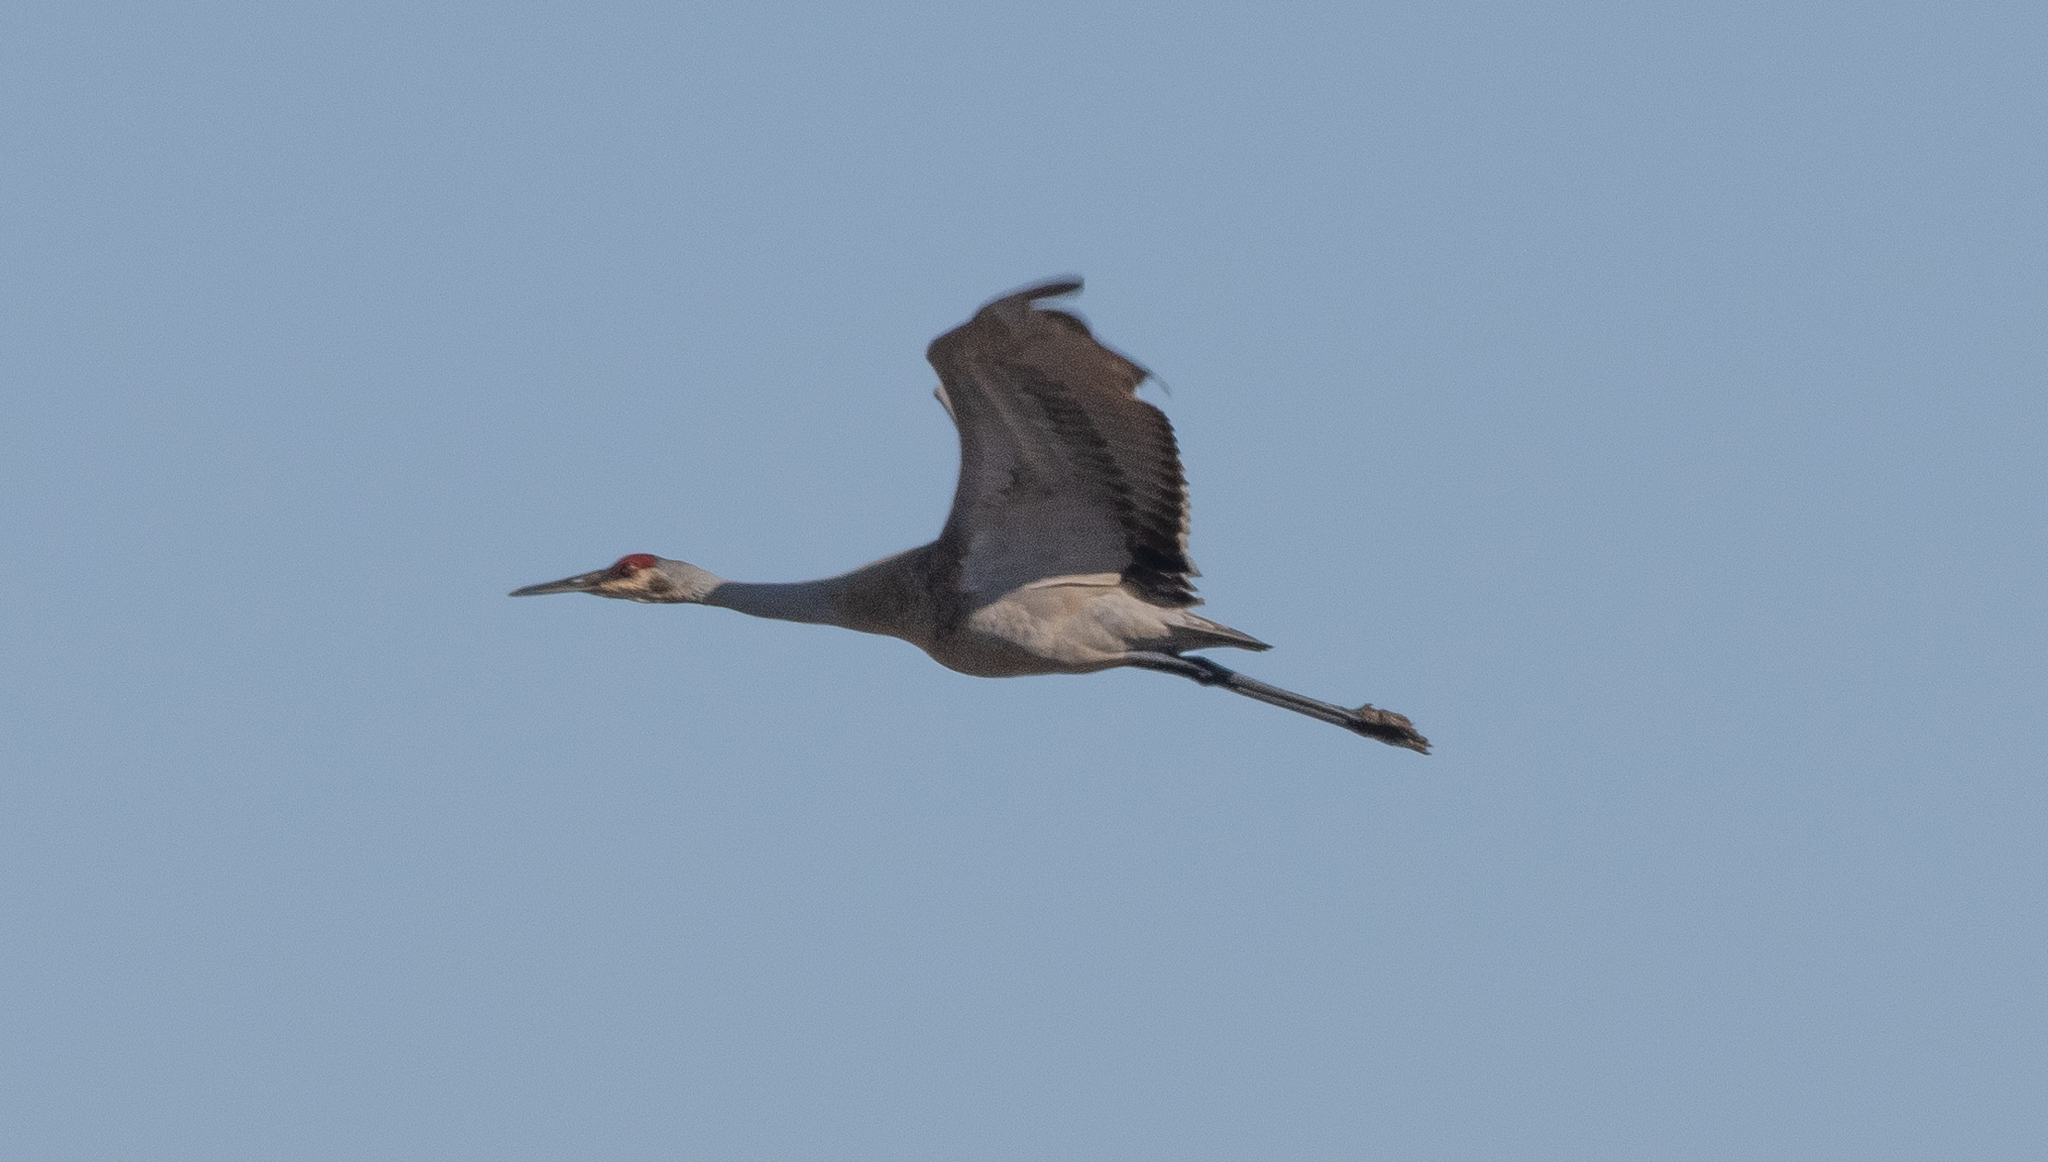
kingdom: Animalia
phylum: Chordata
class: Aves
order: Gruiformes
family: Gruidae
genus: Grus
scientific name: Grus canadensis
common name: Sandhill crane
